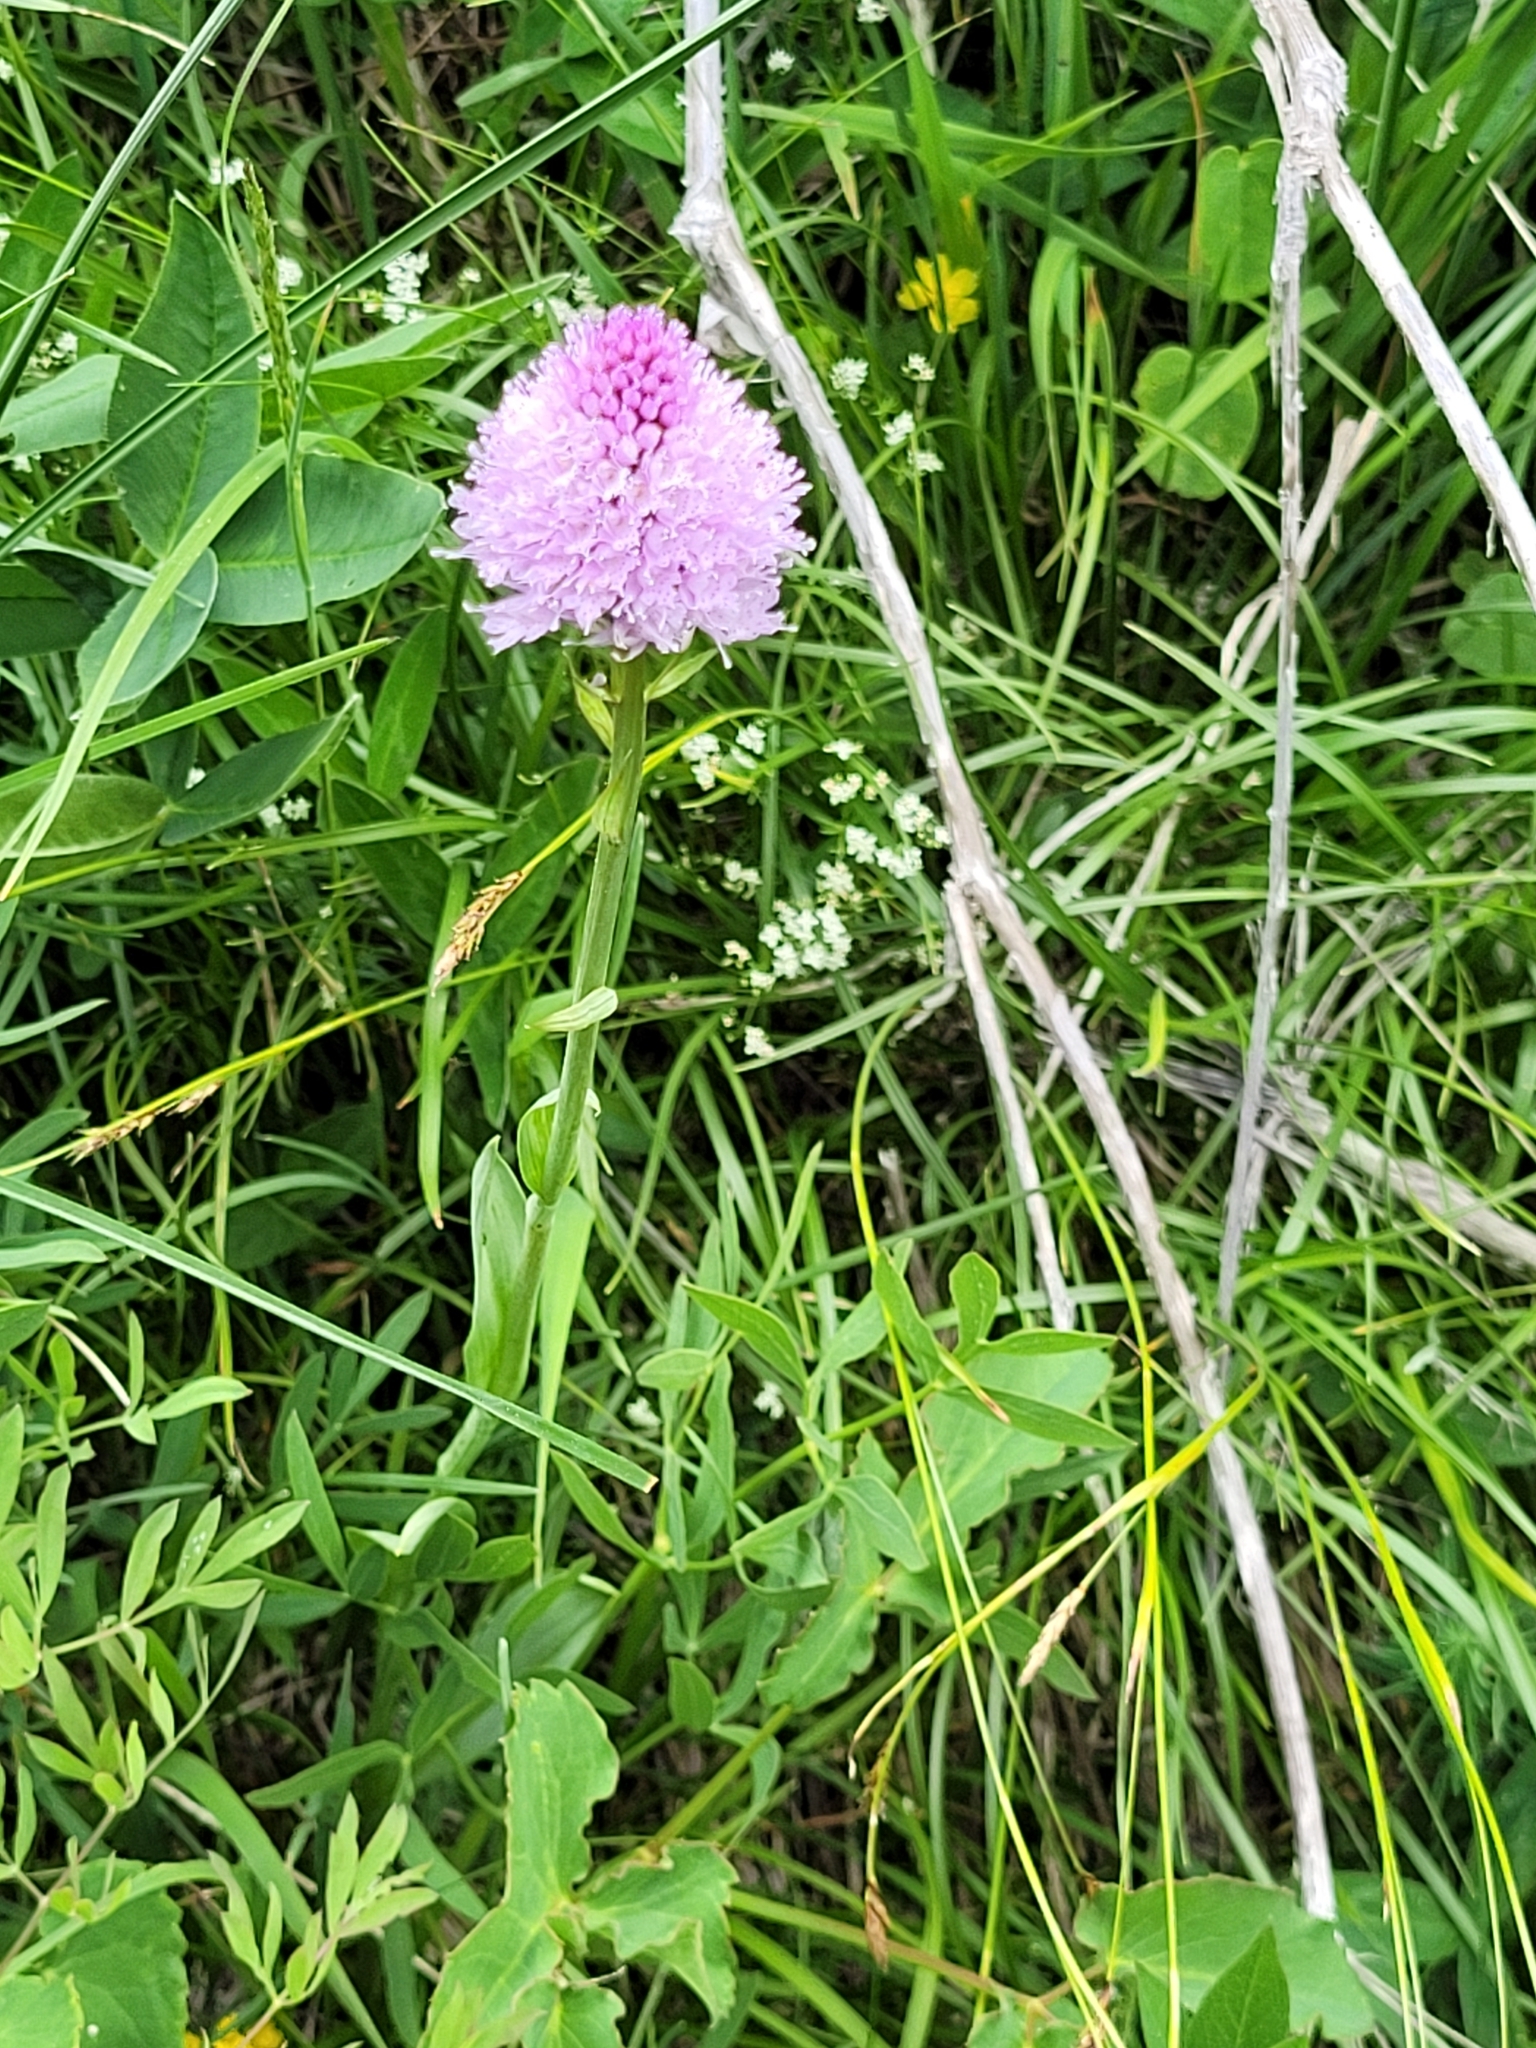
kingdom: Plantae
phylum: Tracheophyta
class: Liliopsida
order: Asparagales
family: Orchidaceae
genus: Traunsteinera
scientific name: Traunsteinera globosa
